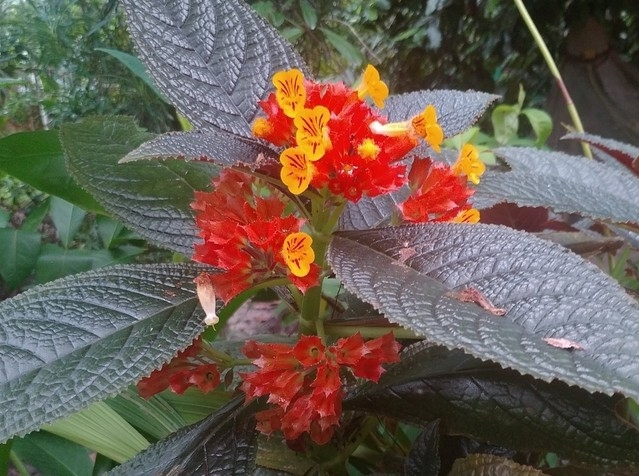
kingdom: Plantae
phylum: Tracheophyta
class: Magnoliopsida
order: Lamiales
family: Gesneriaceae
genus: Chrysothemis
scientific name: Chrysothemis pulchella
